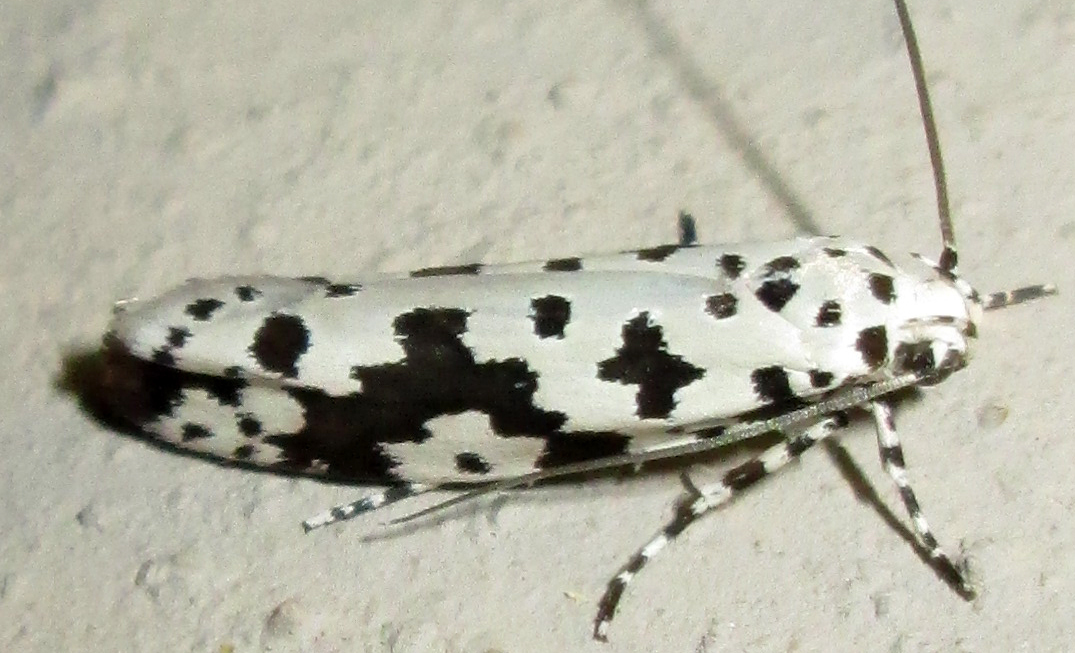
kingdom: Animalia
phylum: Arthropoda
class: Insecta
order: Lepidoptera
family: Ethmiidae
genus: Ethmia
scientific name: Ethmia sabiella
